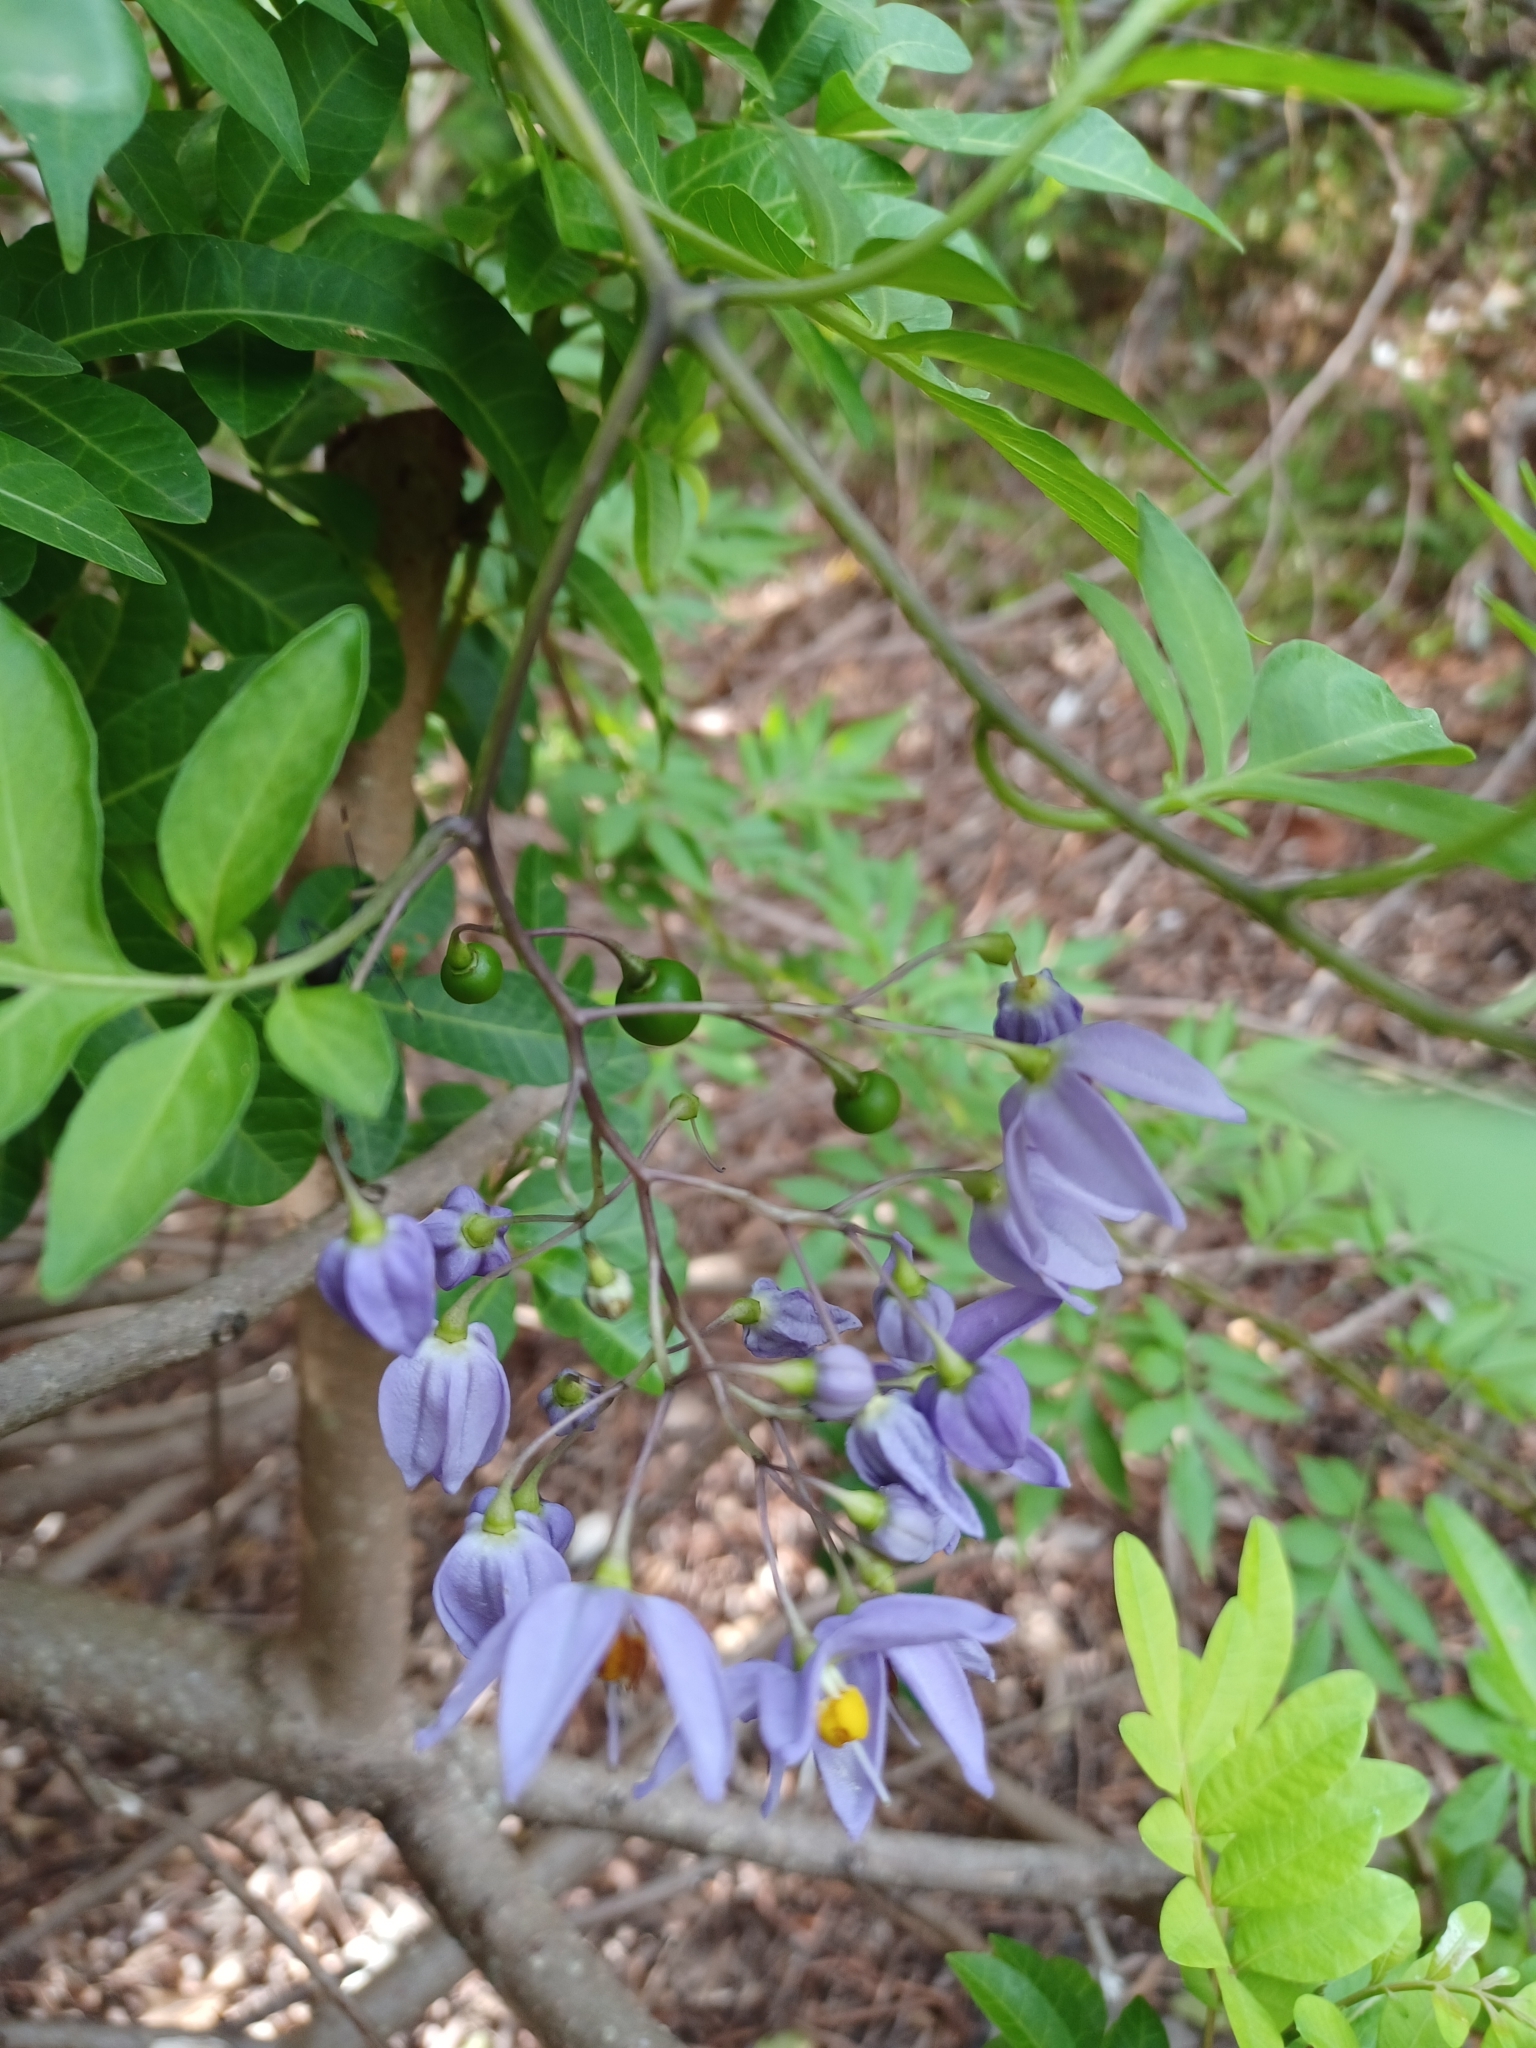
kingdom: Plantae
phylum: Tracheophyta
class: Magnoliopsida
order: Solanales
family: Solanaceae
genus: Solanum
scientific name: Solanum seaforthianum
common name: Brazilian nightshade
